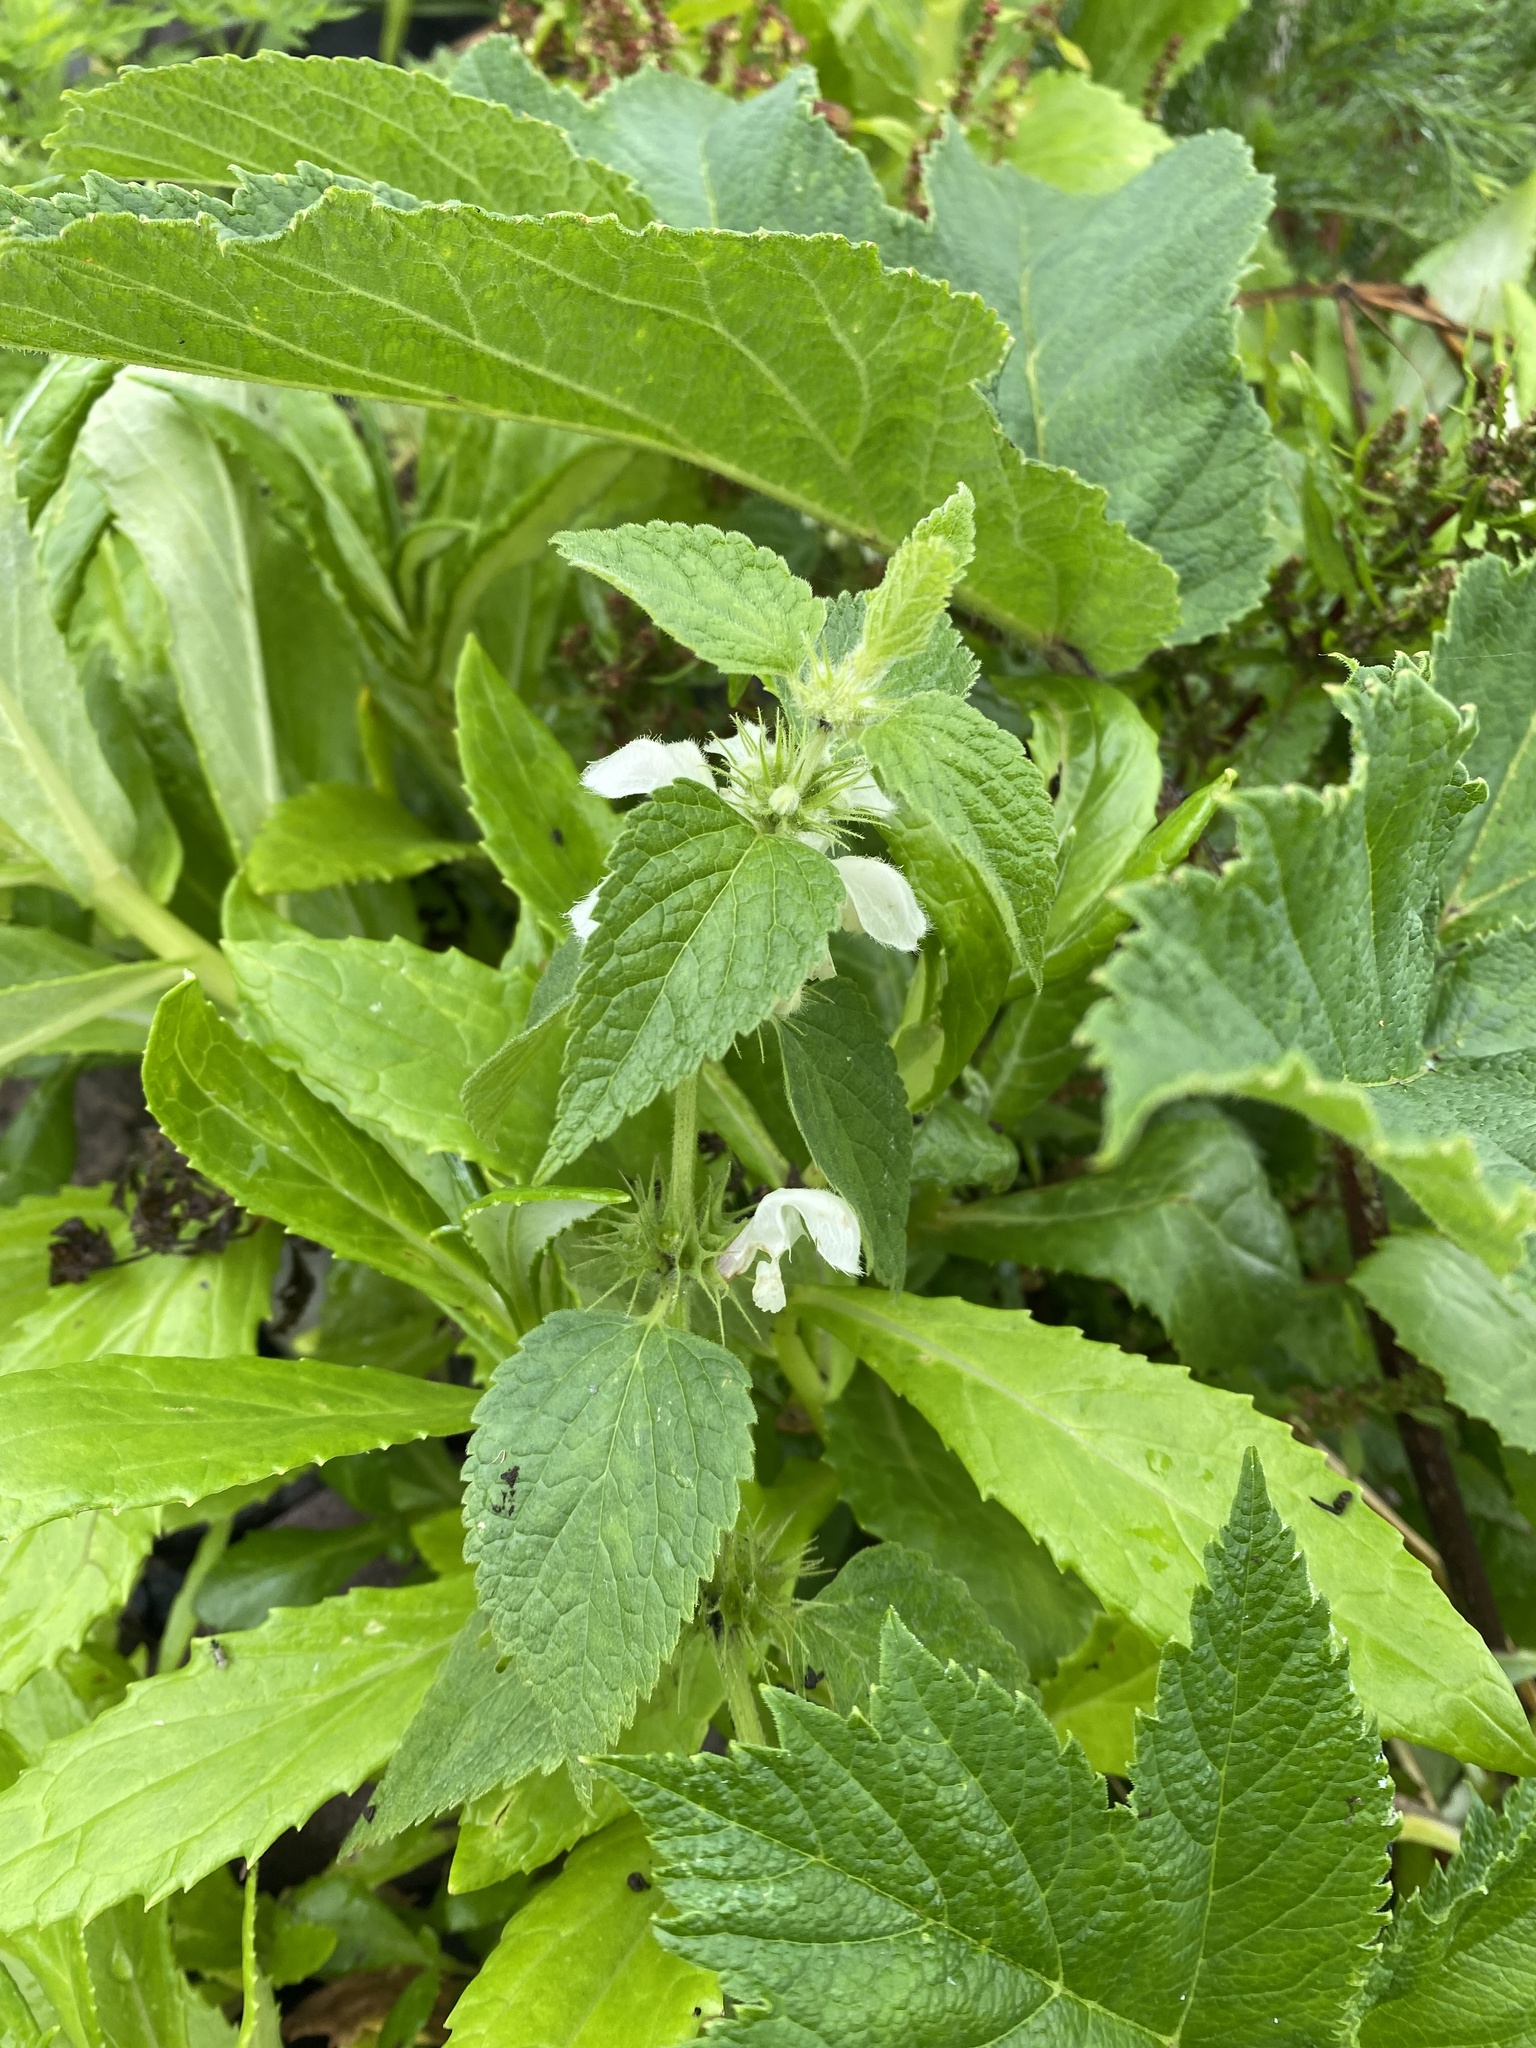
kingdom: Plantae
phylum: Tracheophyta
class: Magnoliopsida
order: Lamiales
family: Lamiaceae
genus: Lamium
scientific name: Lamium album
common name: White dead-nettle
